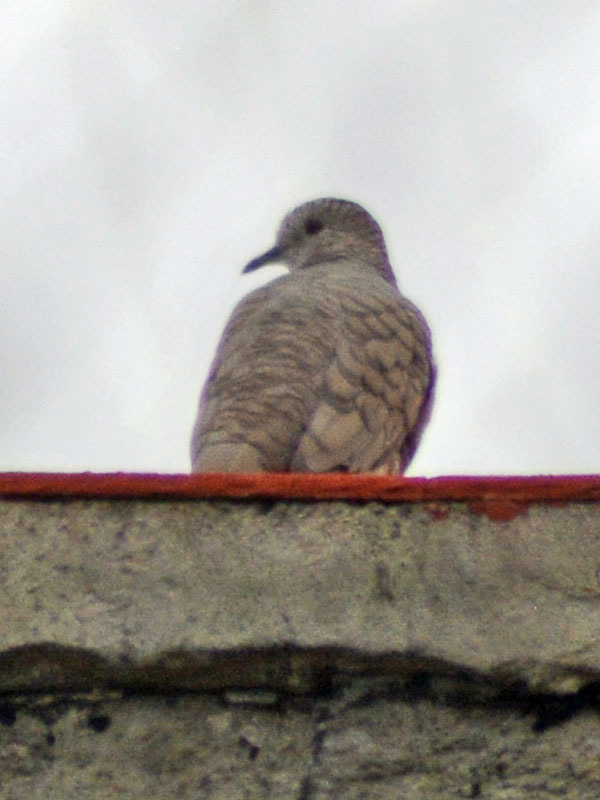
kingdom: Animalia
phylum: Chordata
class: Aves
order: Columbiformes
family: Columbidae
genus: Columbina
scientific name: Columbina inca
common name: Inca dove
